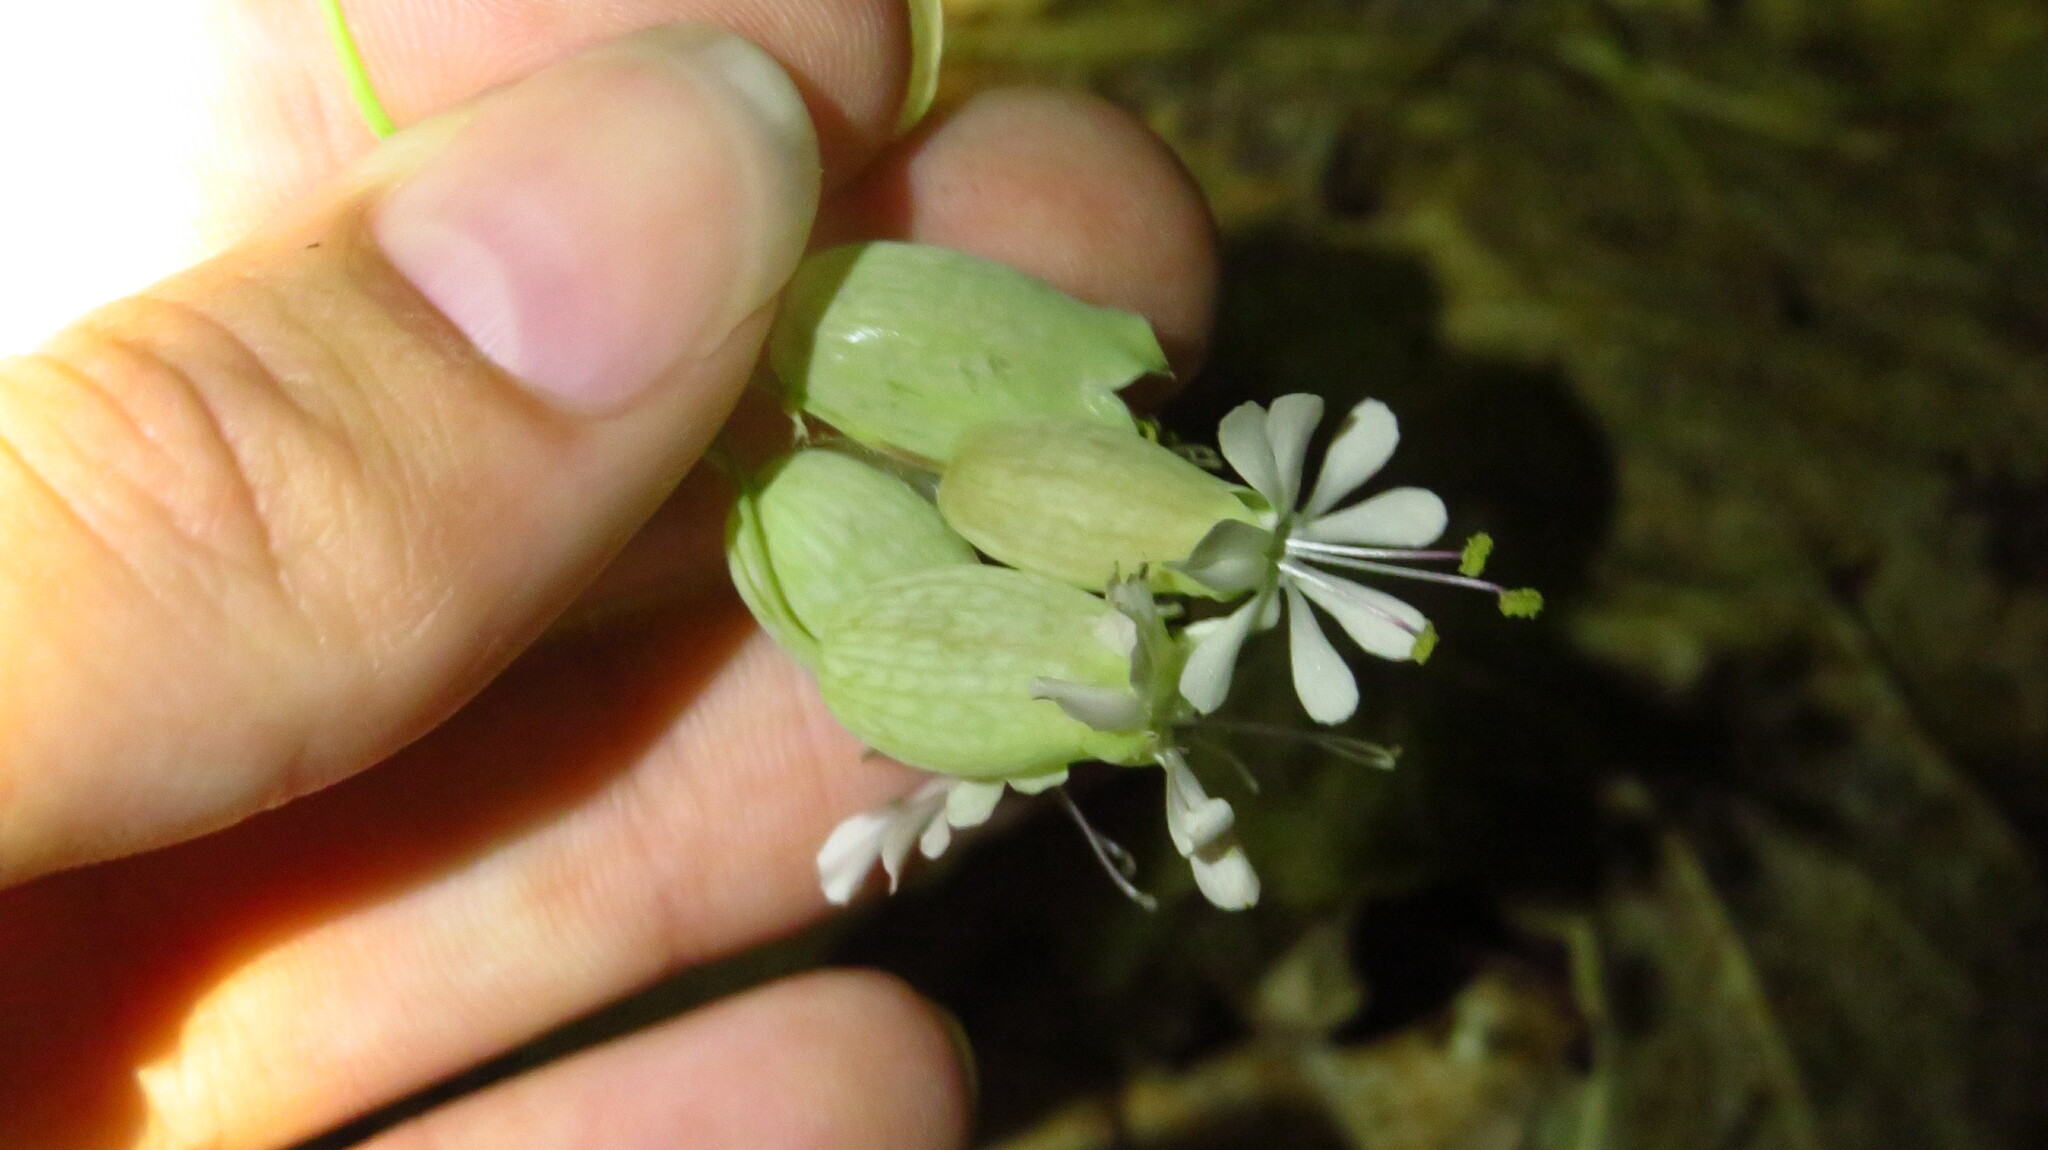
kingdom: Plantae
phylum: Tracheophyta
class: Magnoliopsida
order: Caryophyllales
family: Caryophyllaceae
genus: Silene
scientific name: Silene vulgaris
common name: Bladder campion
